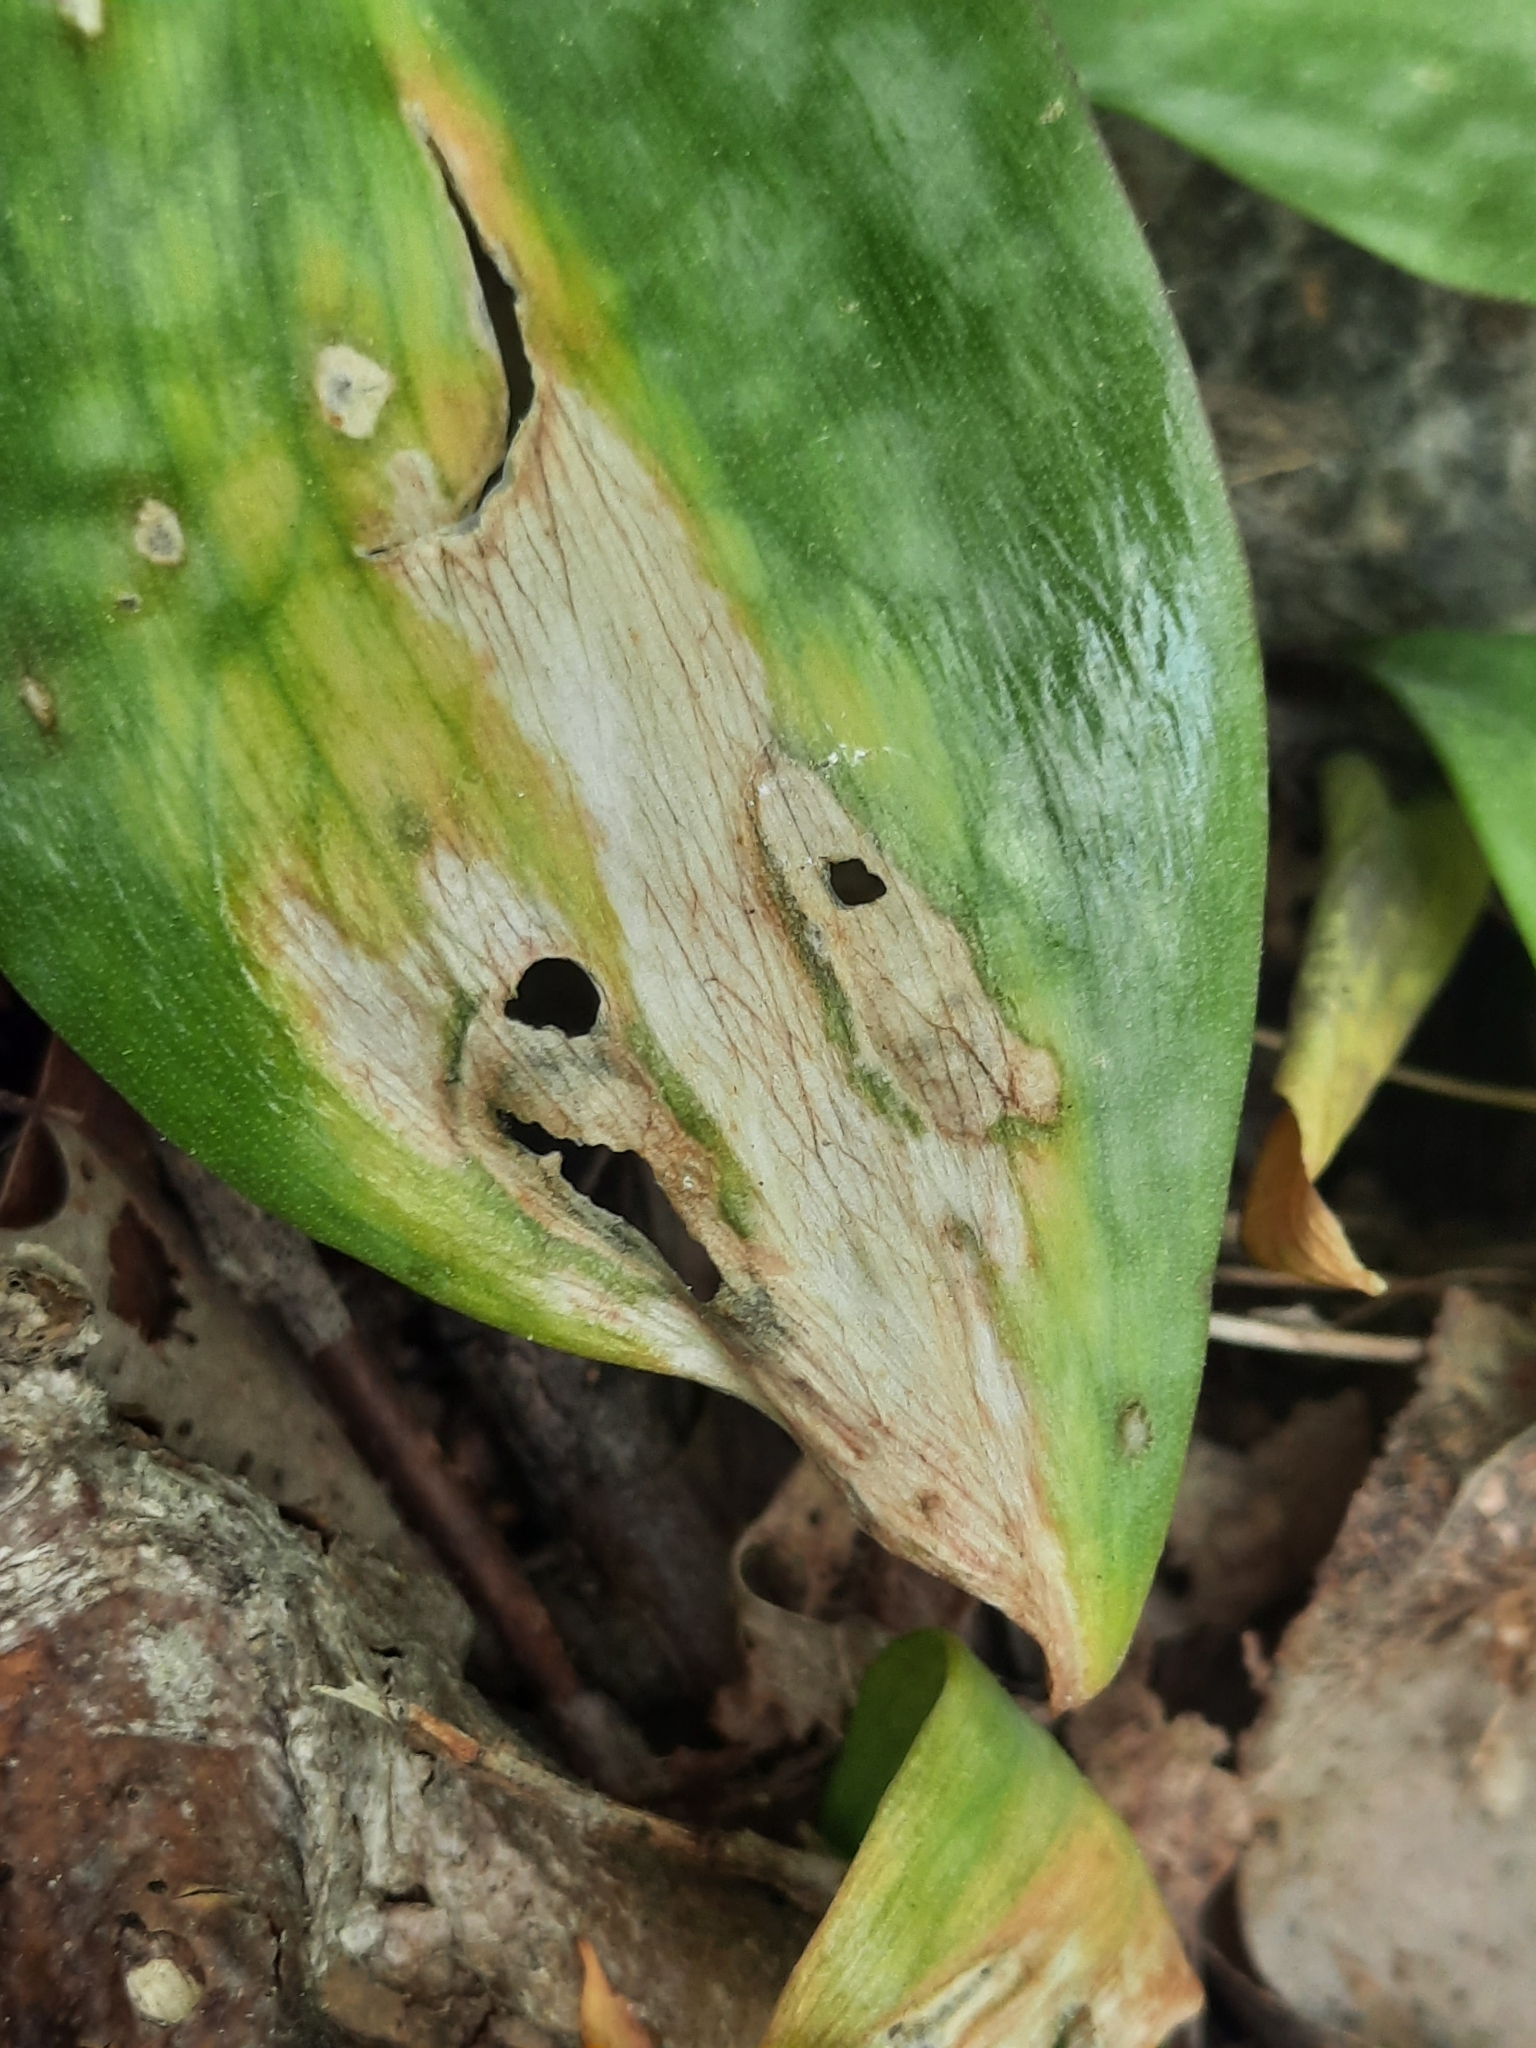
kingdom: Plantae
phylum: Tracheophyta
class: Liliopsida
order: Liliales
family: Liliaceae
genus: Erythronium
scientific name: Erythronium americanum
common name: Yellow adder's-tongue
